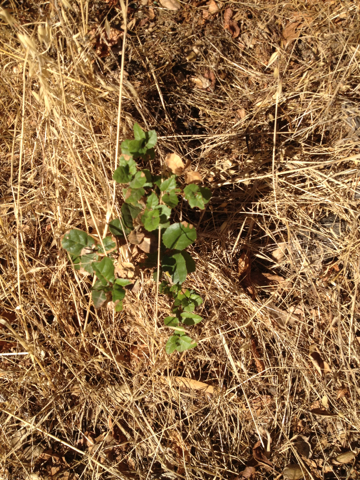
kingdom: Plantae
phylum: Tracheophyta
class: Magnoliopsida
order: Fagales
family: Fagaceae
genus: Quercus
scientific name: Quercus agrifolia
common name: California live oak
